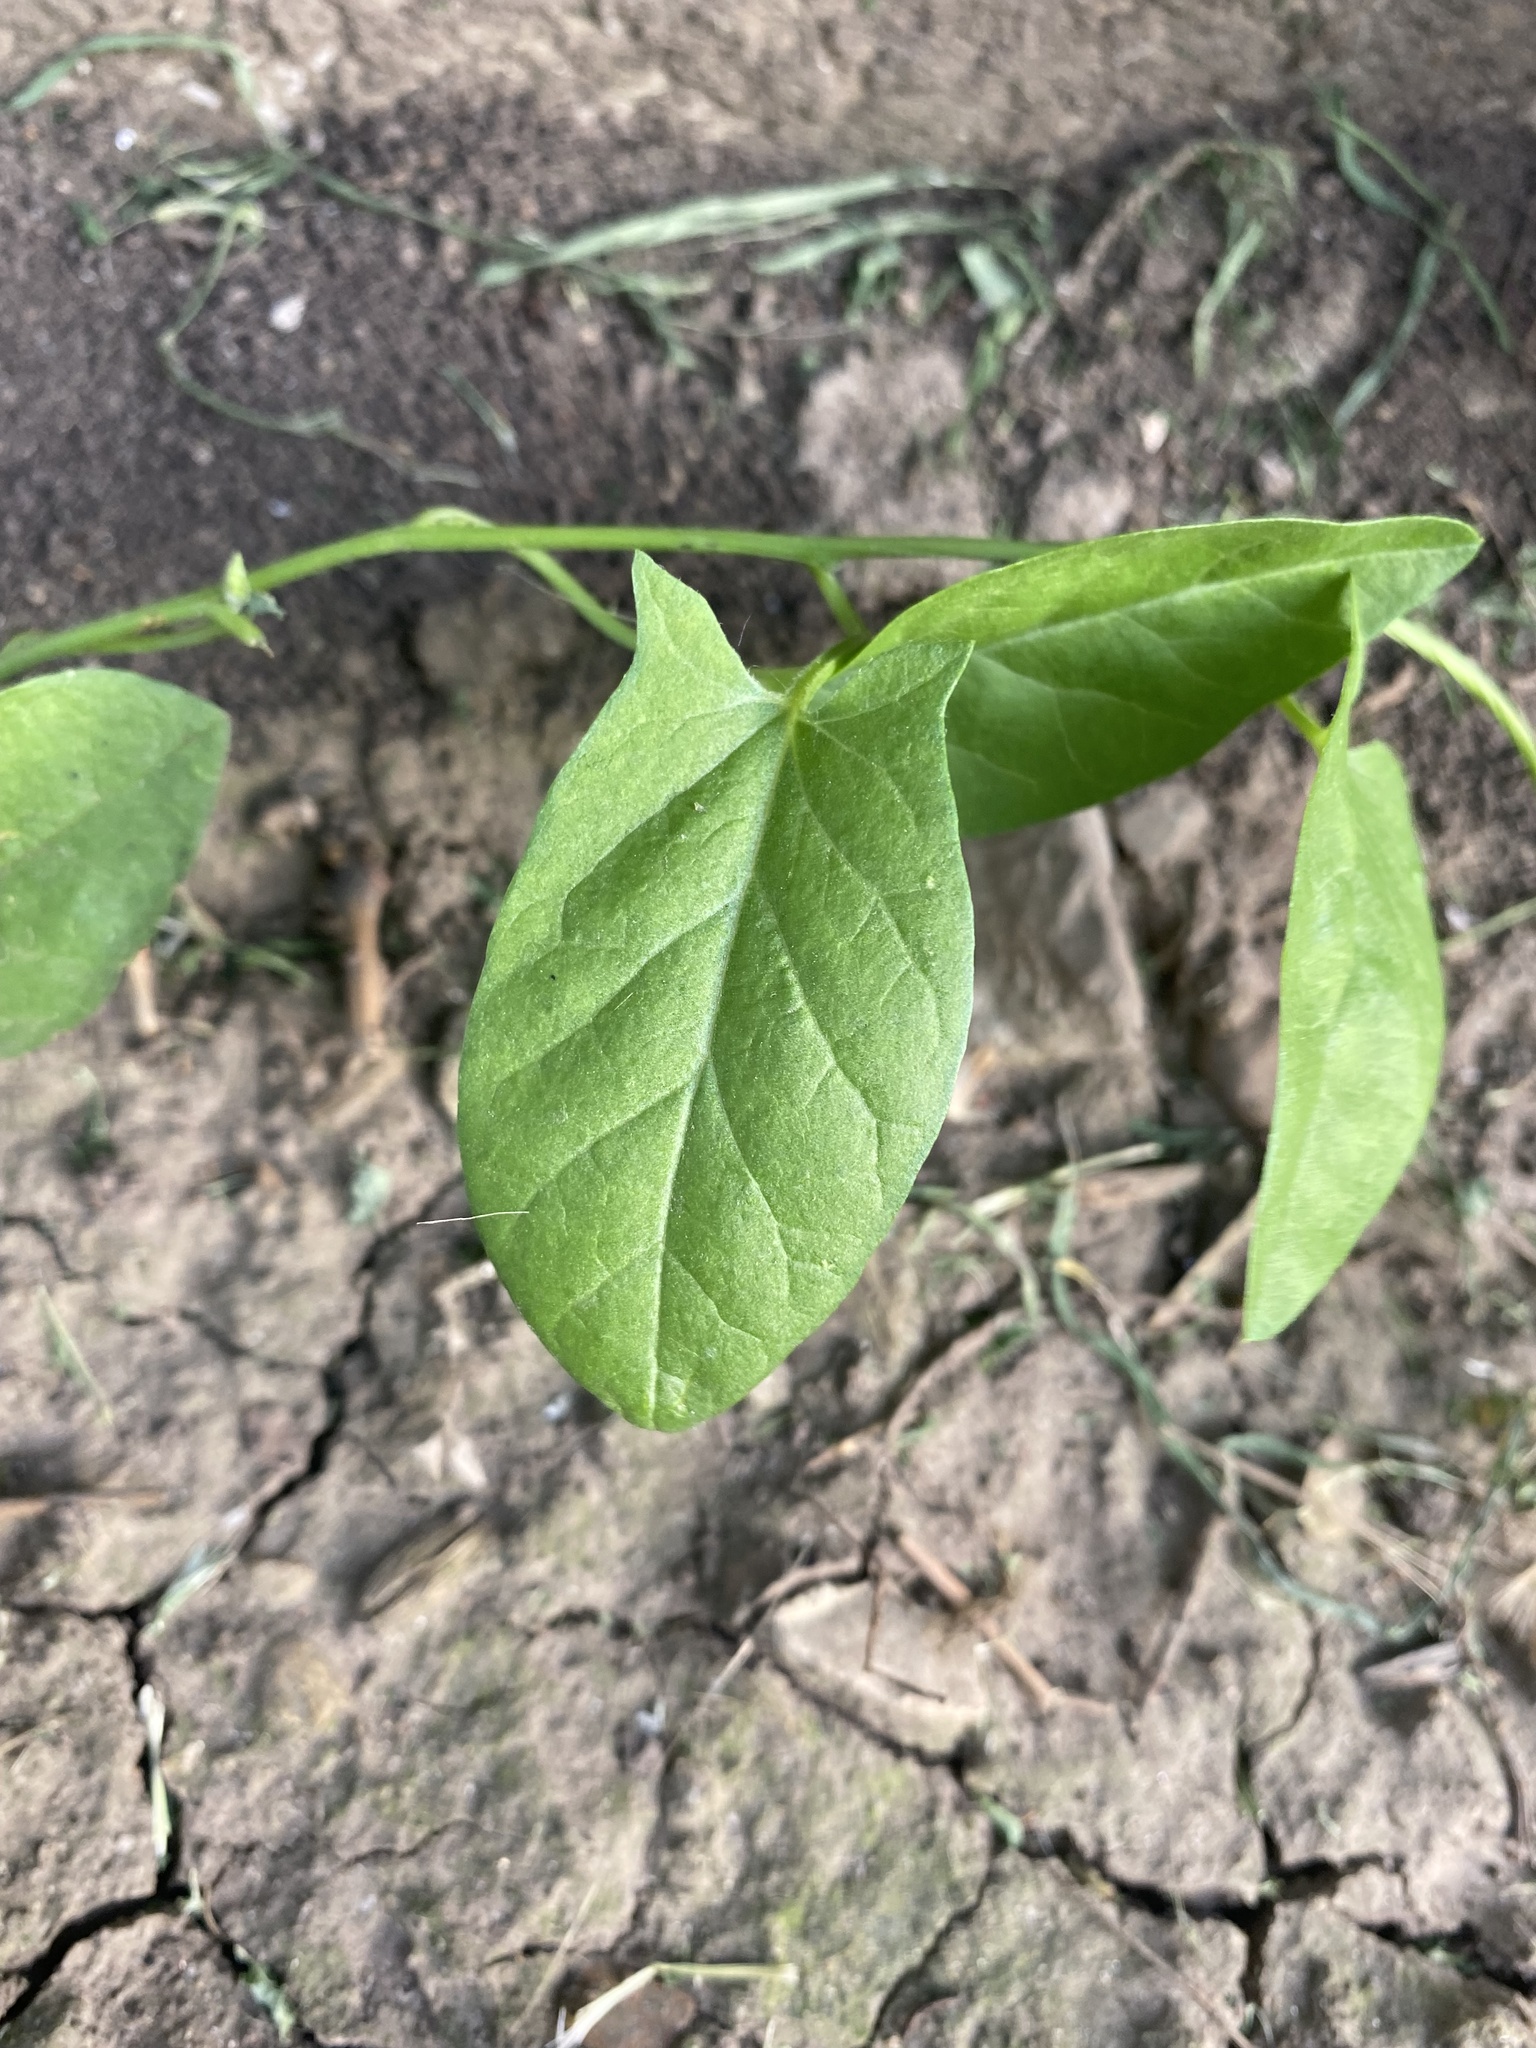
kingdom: Plantae
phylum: Tracheophyta
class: Magnoliopsida
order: Solanales
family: Convolvulaceae
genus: Convolvulus
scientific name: Convolvulus arvensis
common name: Field bindweed
